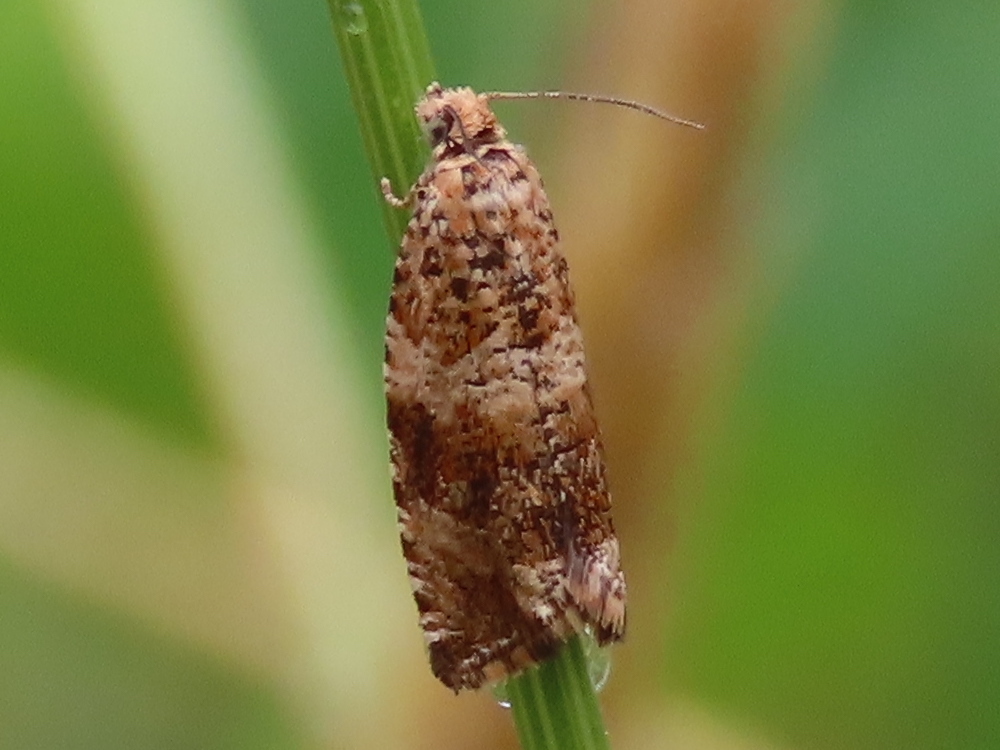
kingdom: Animalia
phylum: Arthropoda
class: Insecta
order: Lepidoptera
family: Tortricidae
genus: Celypha
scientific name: Celypha cespitana
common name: Thyme marble
